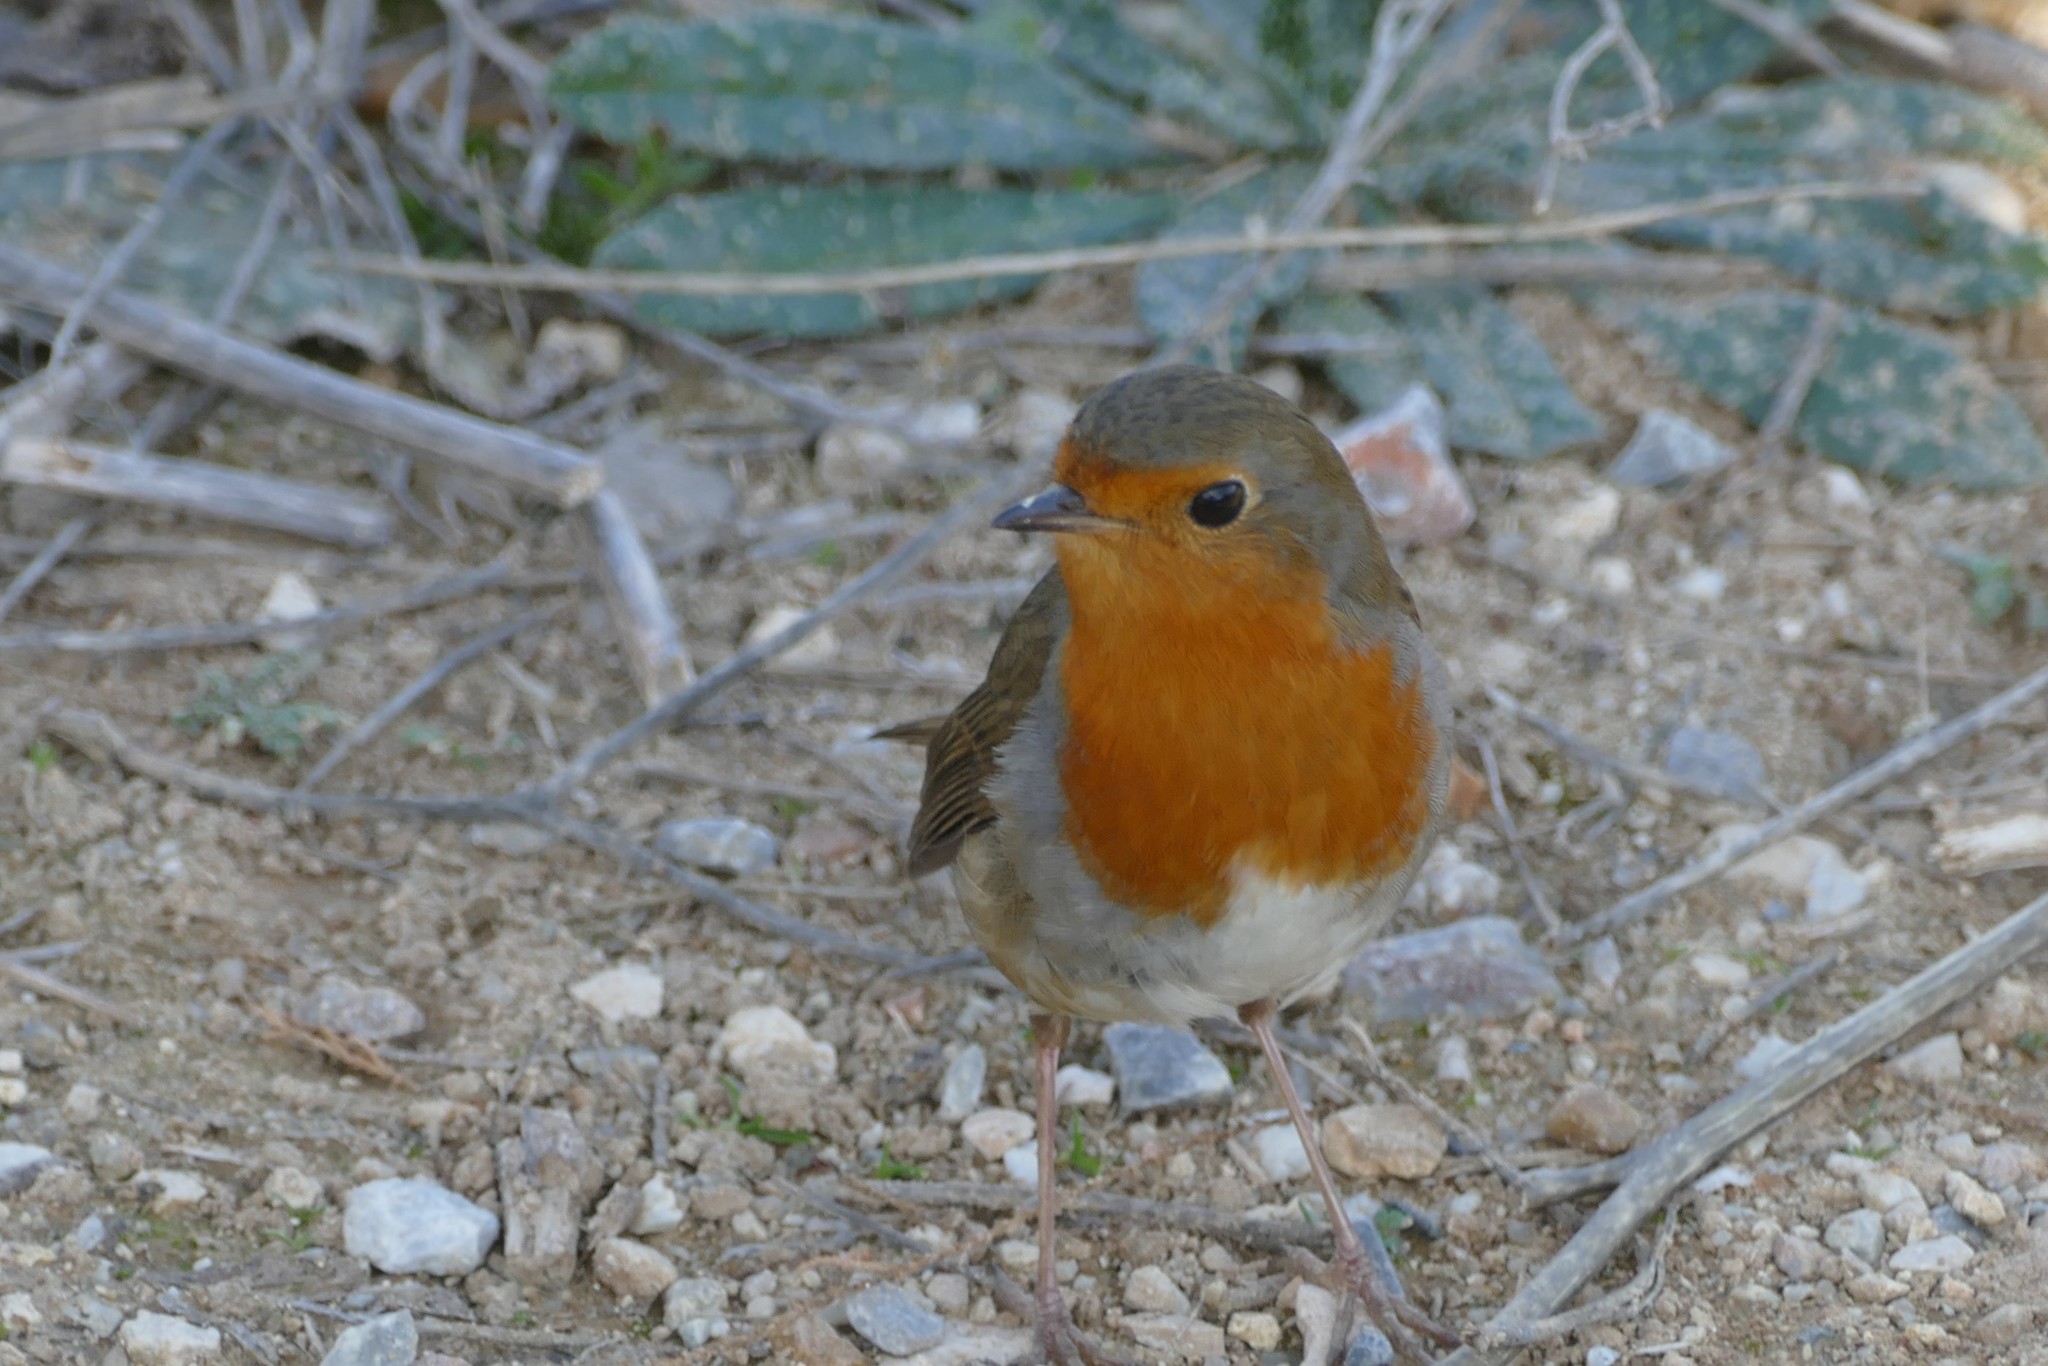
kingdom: Animalia
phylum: Chordata
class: Aves
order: Passeriformes
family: Muscicapidae
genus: Erithacus
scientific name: Erithacus rubecula
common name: European robin
